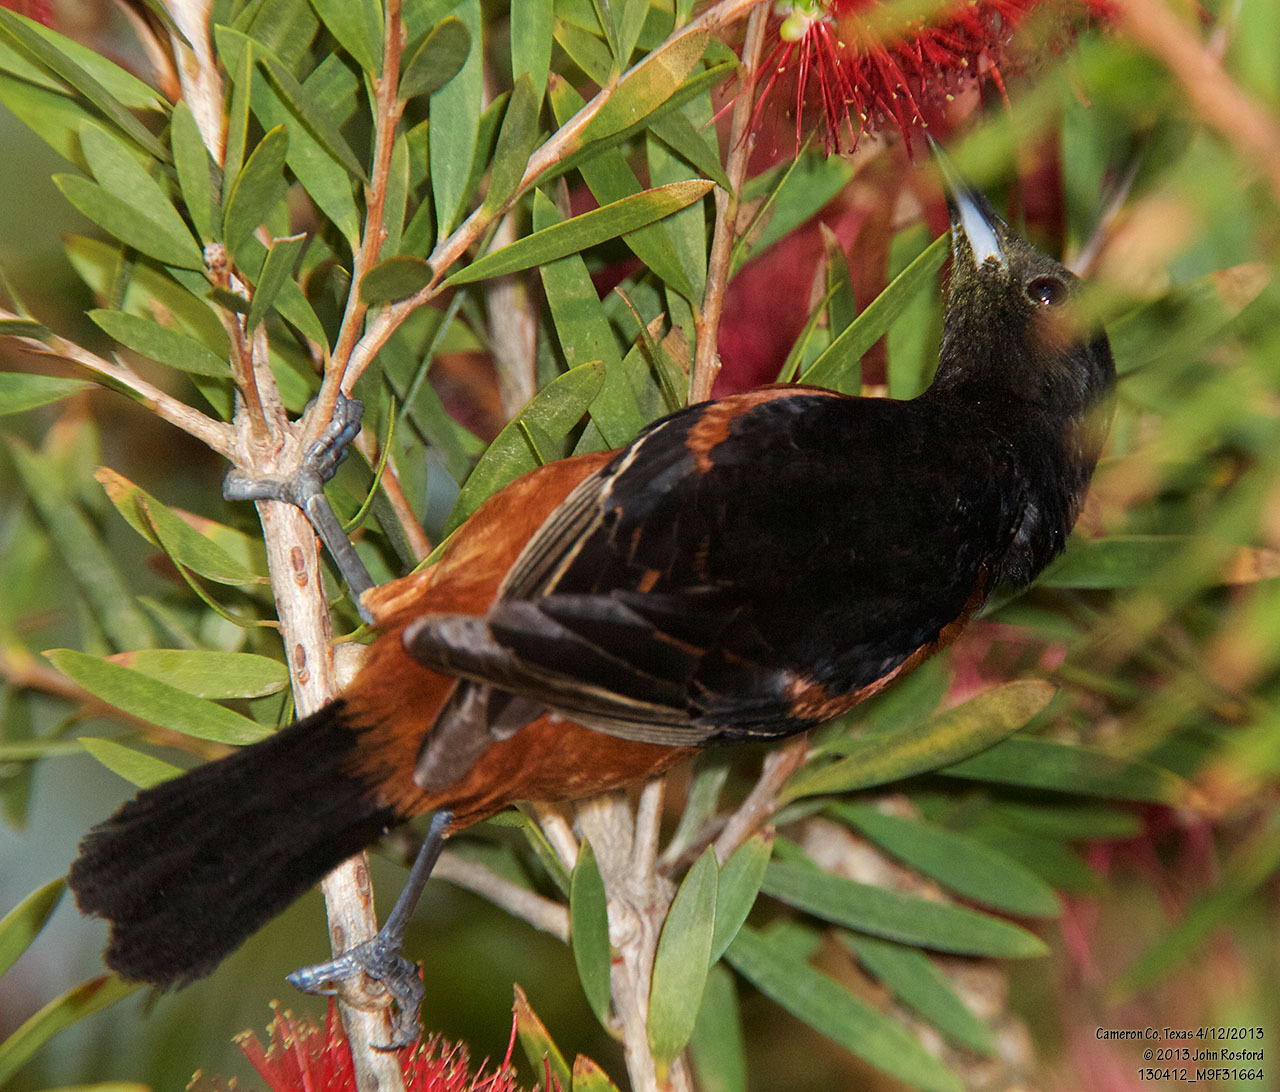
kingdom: Animalia
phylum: Chordata
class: Aves
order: Passeriformes
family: Icteridae
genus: Icterus
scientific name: Icterus spurius
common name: Orchard oriole
